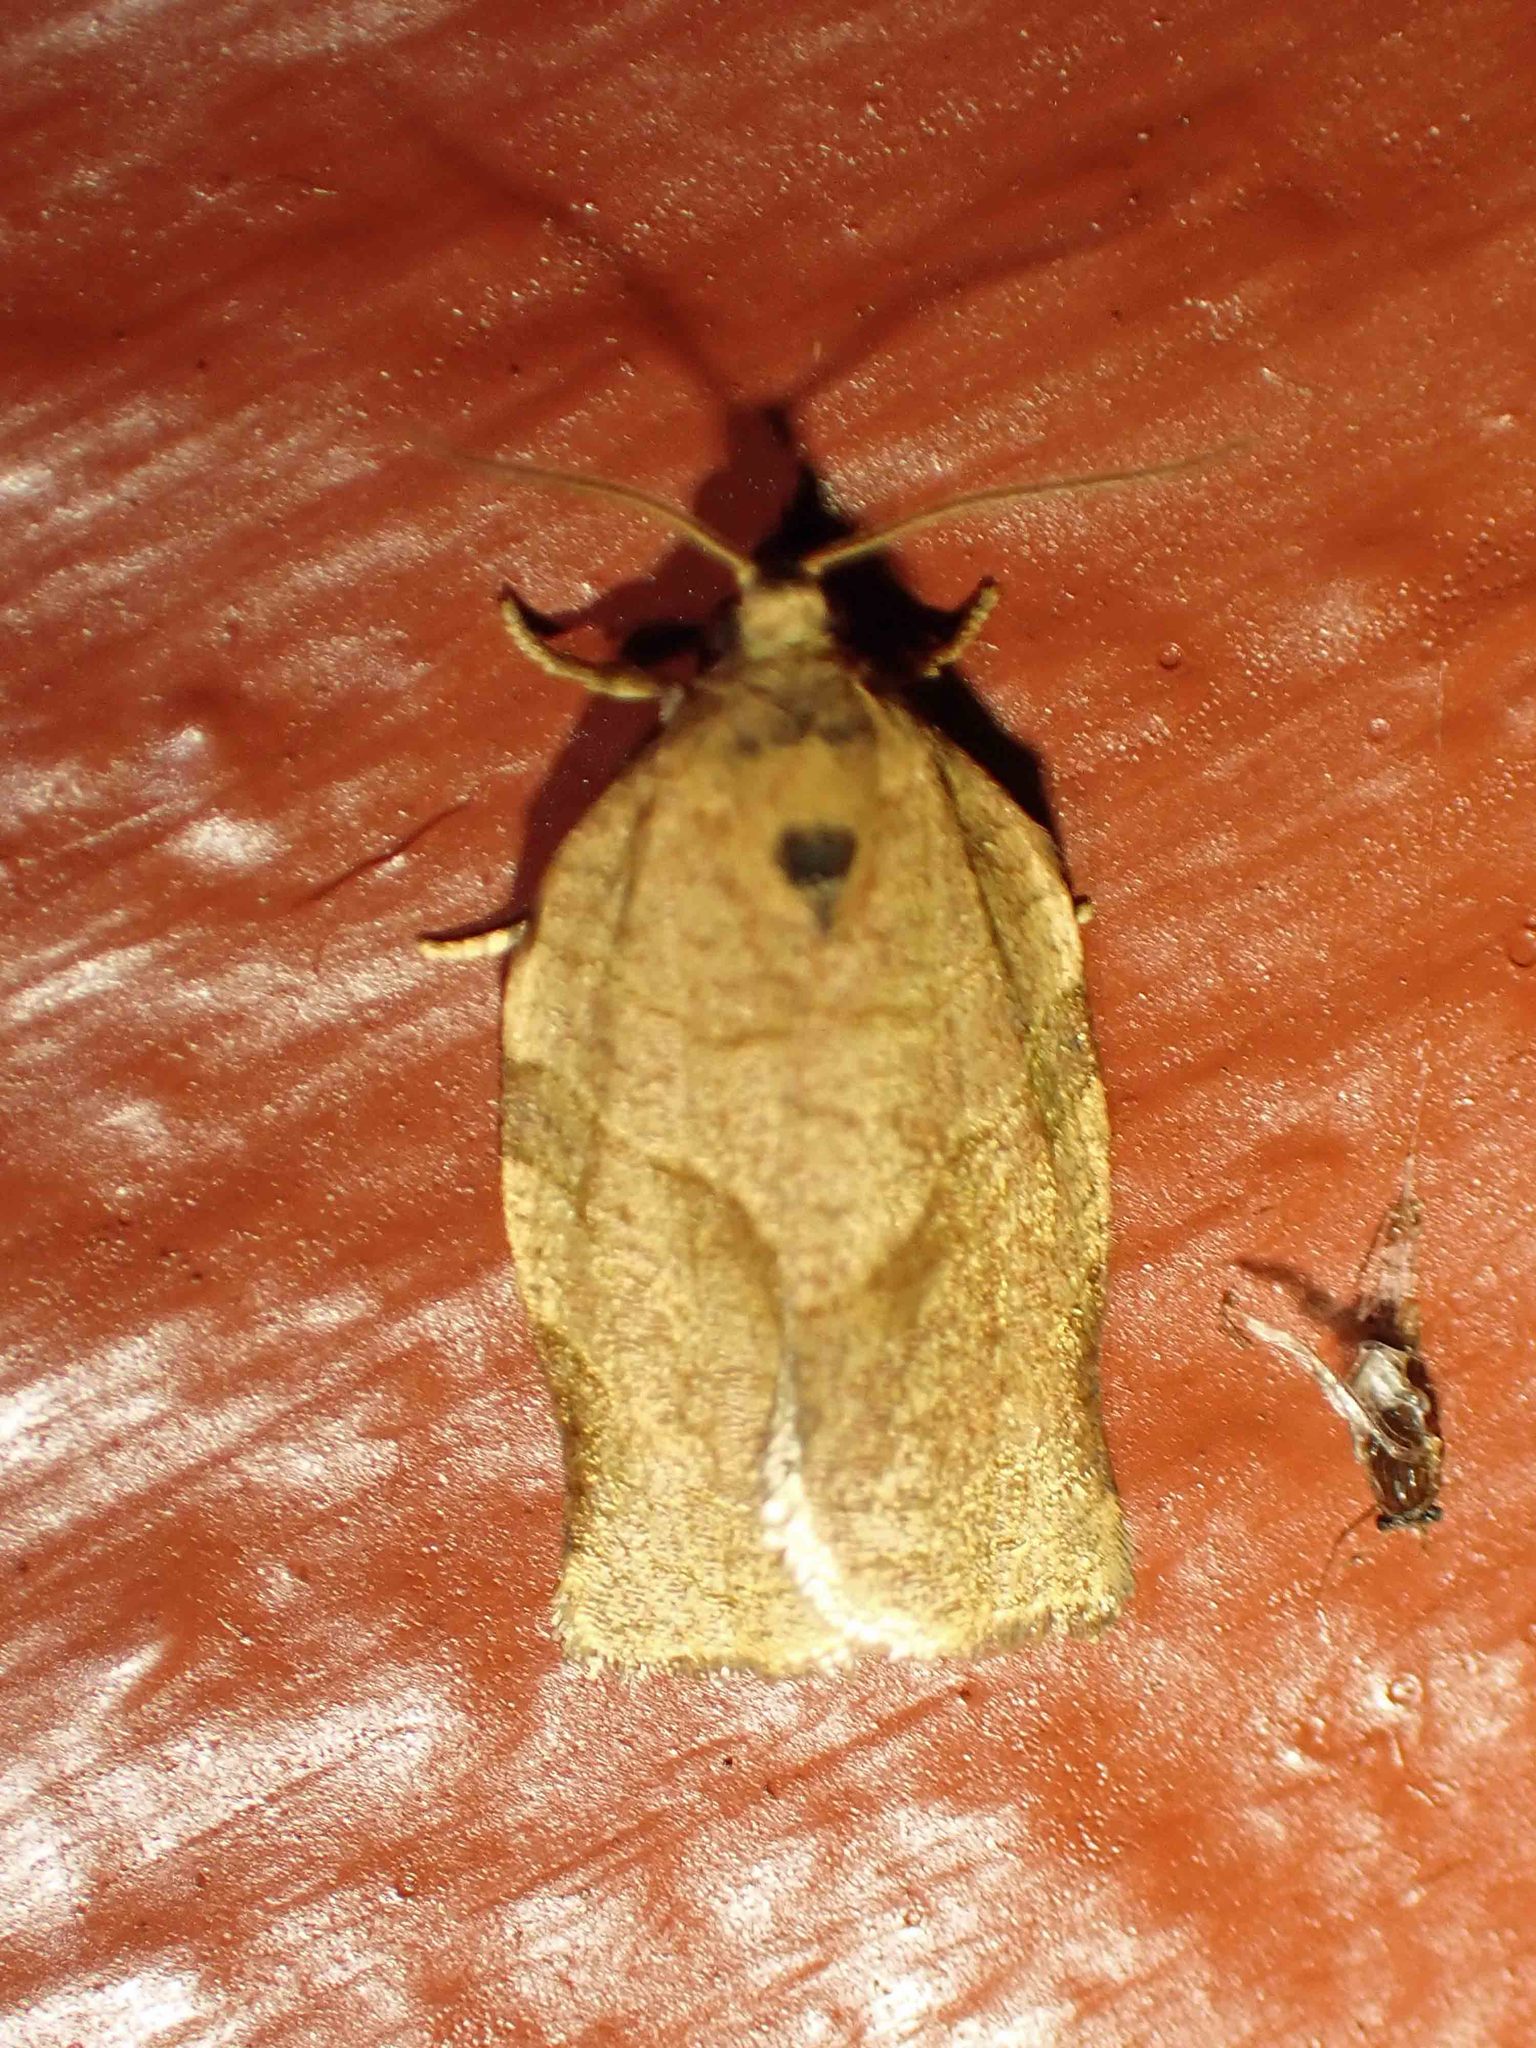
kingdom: Animalia
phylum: Arthropoda
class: Insecta
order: Lepidoptera
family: Tortricidae
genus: Choristoneura
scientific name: Choristoneura rosaceana
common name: Oblique-banded leafroller moth
